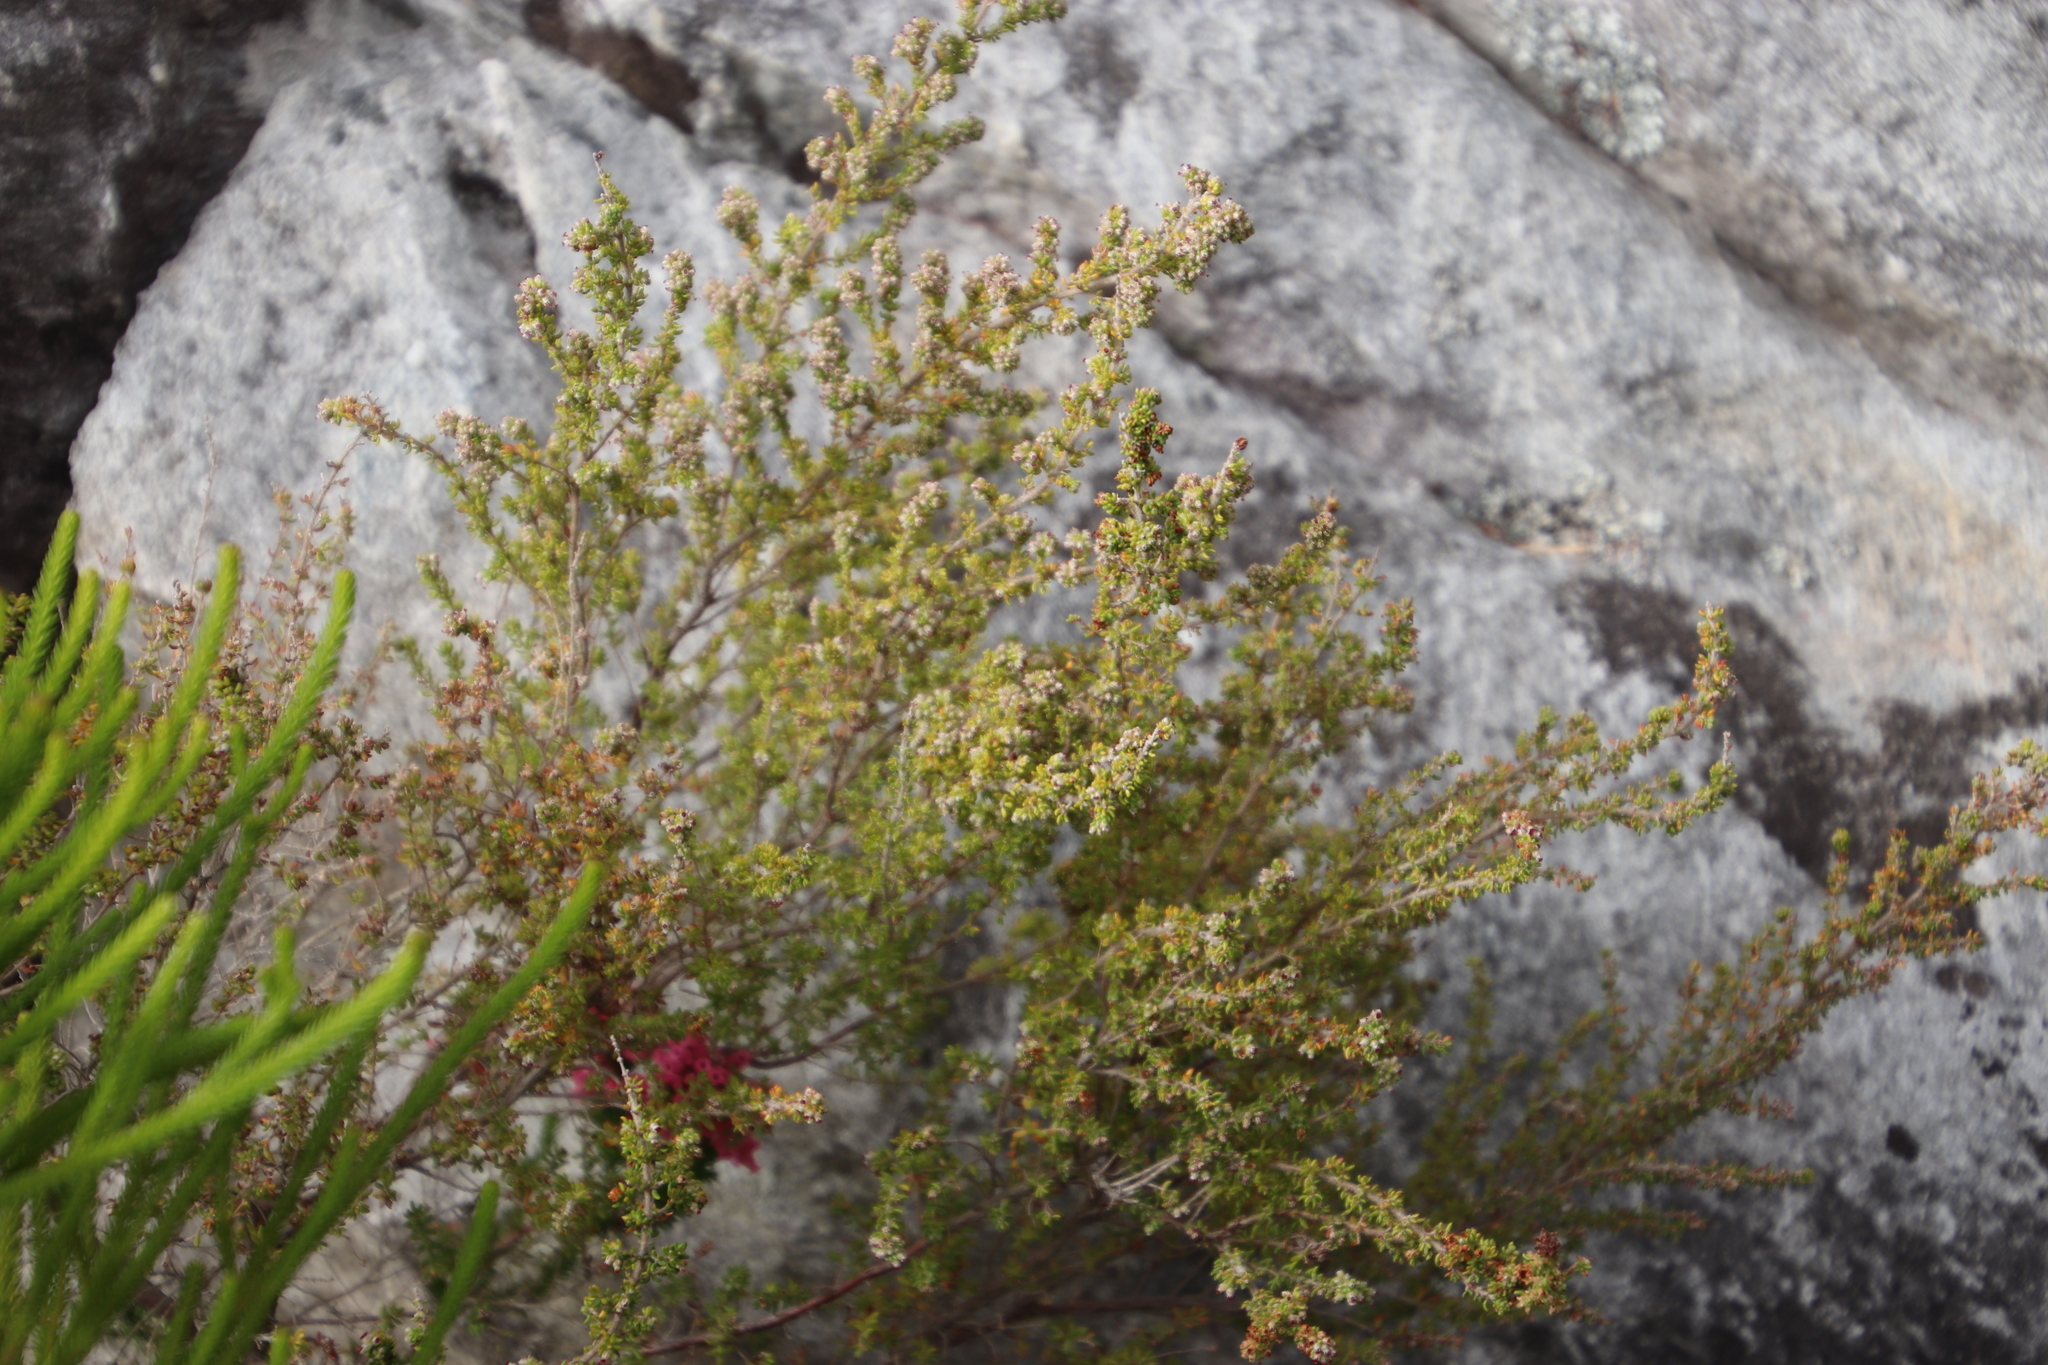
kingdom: Plantae
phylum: Tracheophyta
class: Magnoliopsida
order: Ericales
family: Ericaceae
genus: Erica
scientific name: Erica hispidula
